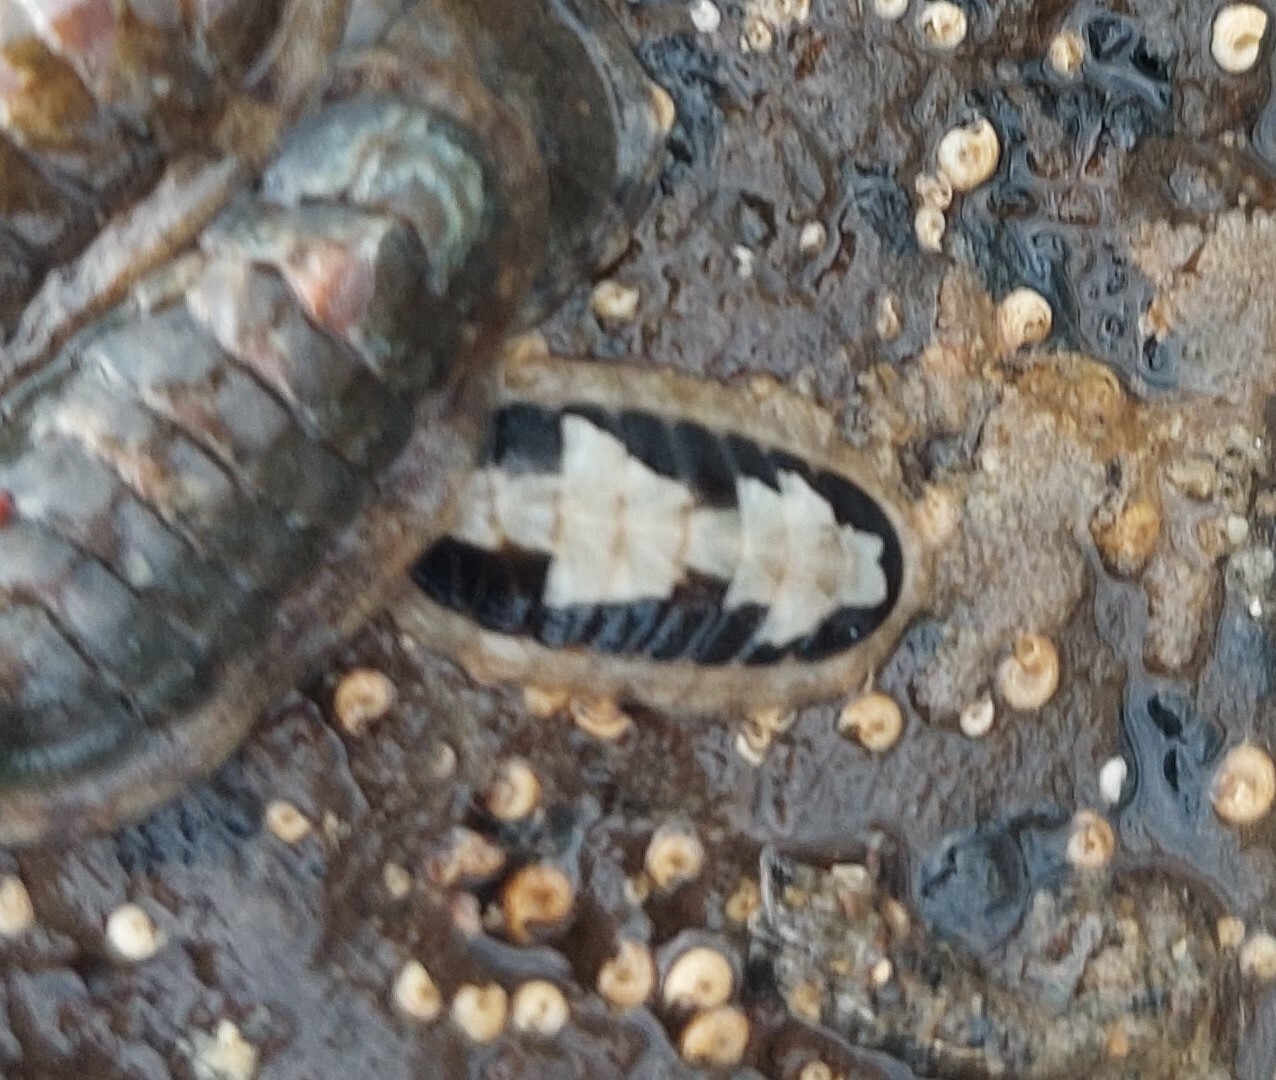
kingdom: Animalia
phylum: Mollusca
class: Polyplacophora
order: Chitonida
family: Ischnochitonidae
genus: Ischnochiton
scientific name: Ischnochiton maorianus
